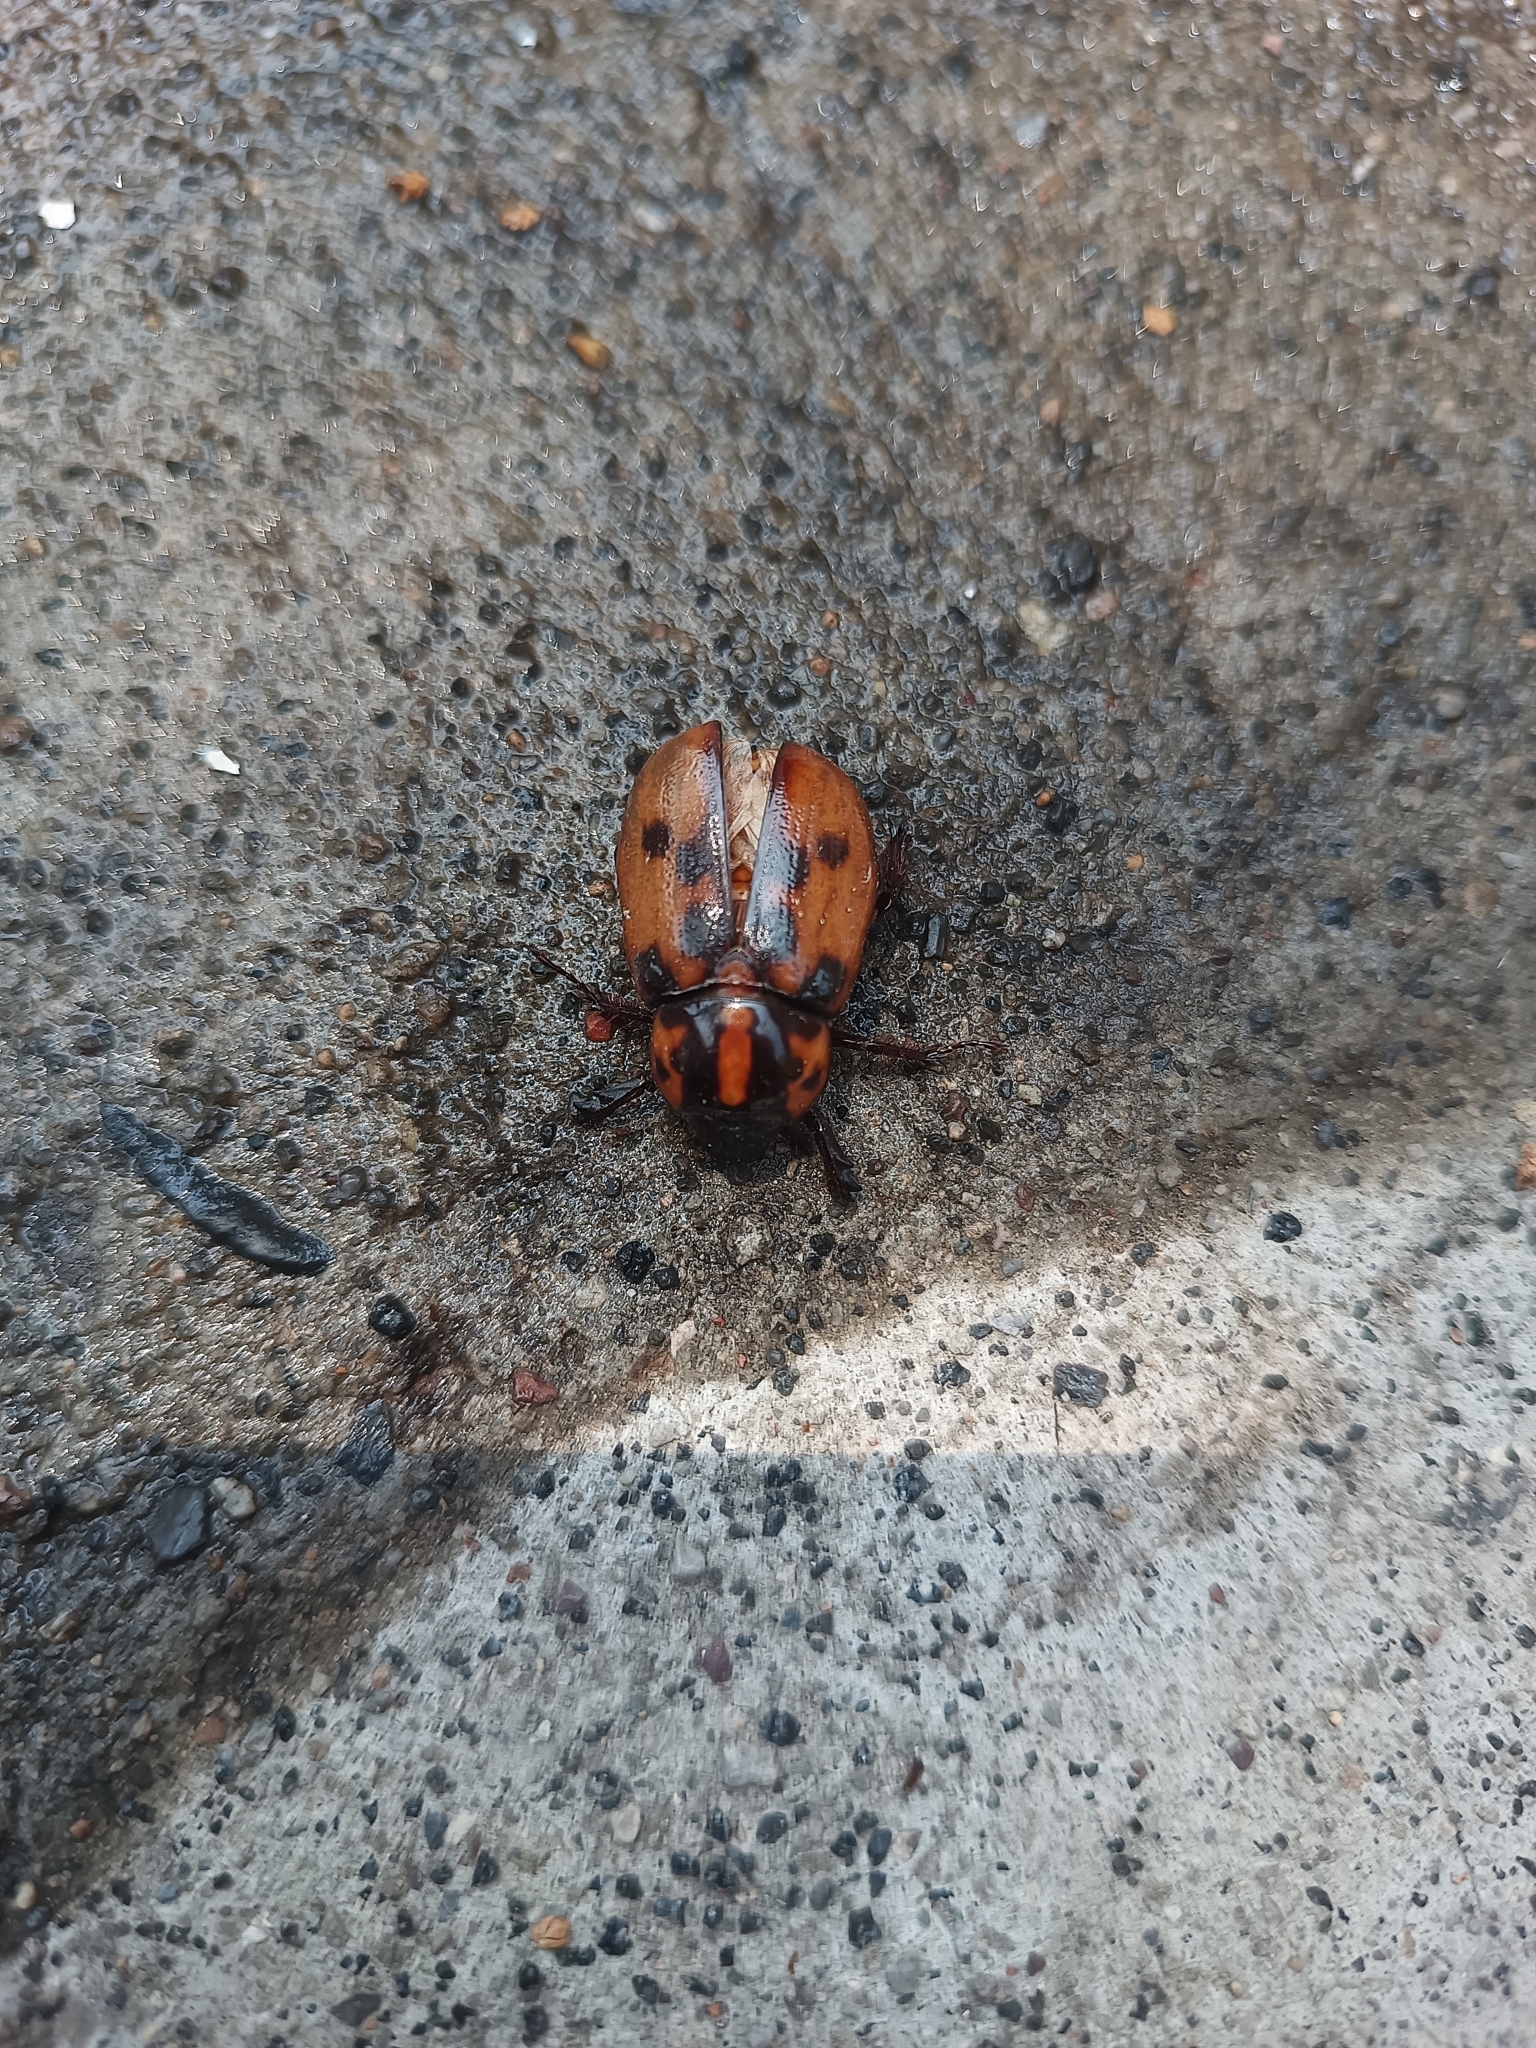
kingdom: Animalia
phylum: Arthropoda
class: Insecta
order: Coleoptera
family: Scarabaeidae
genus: Cyclocephala
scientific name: Cyclocephala deceptor
